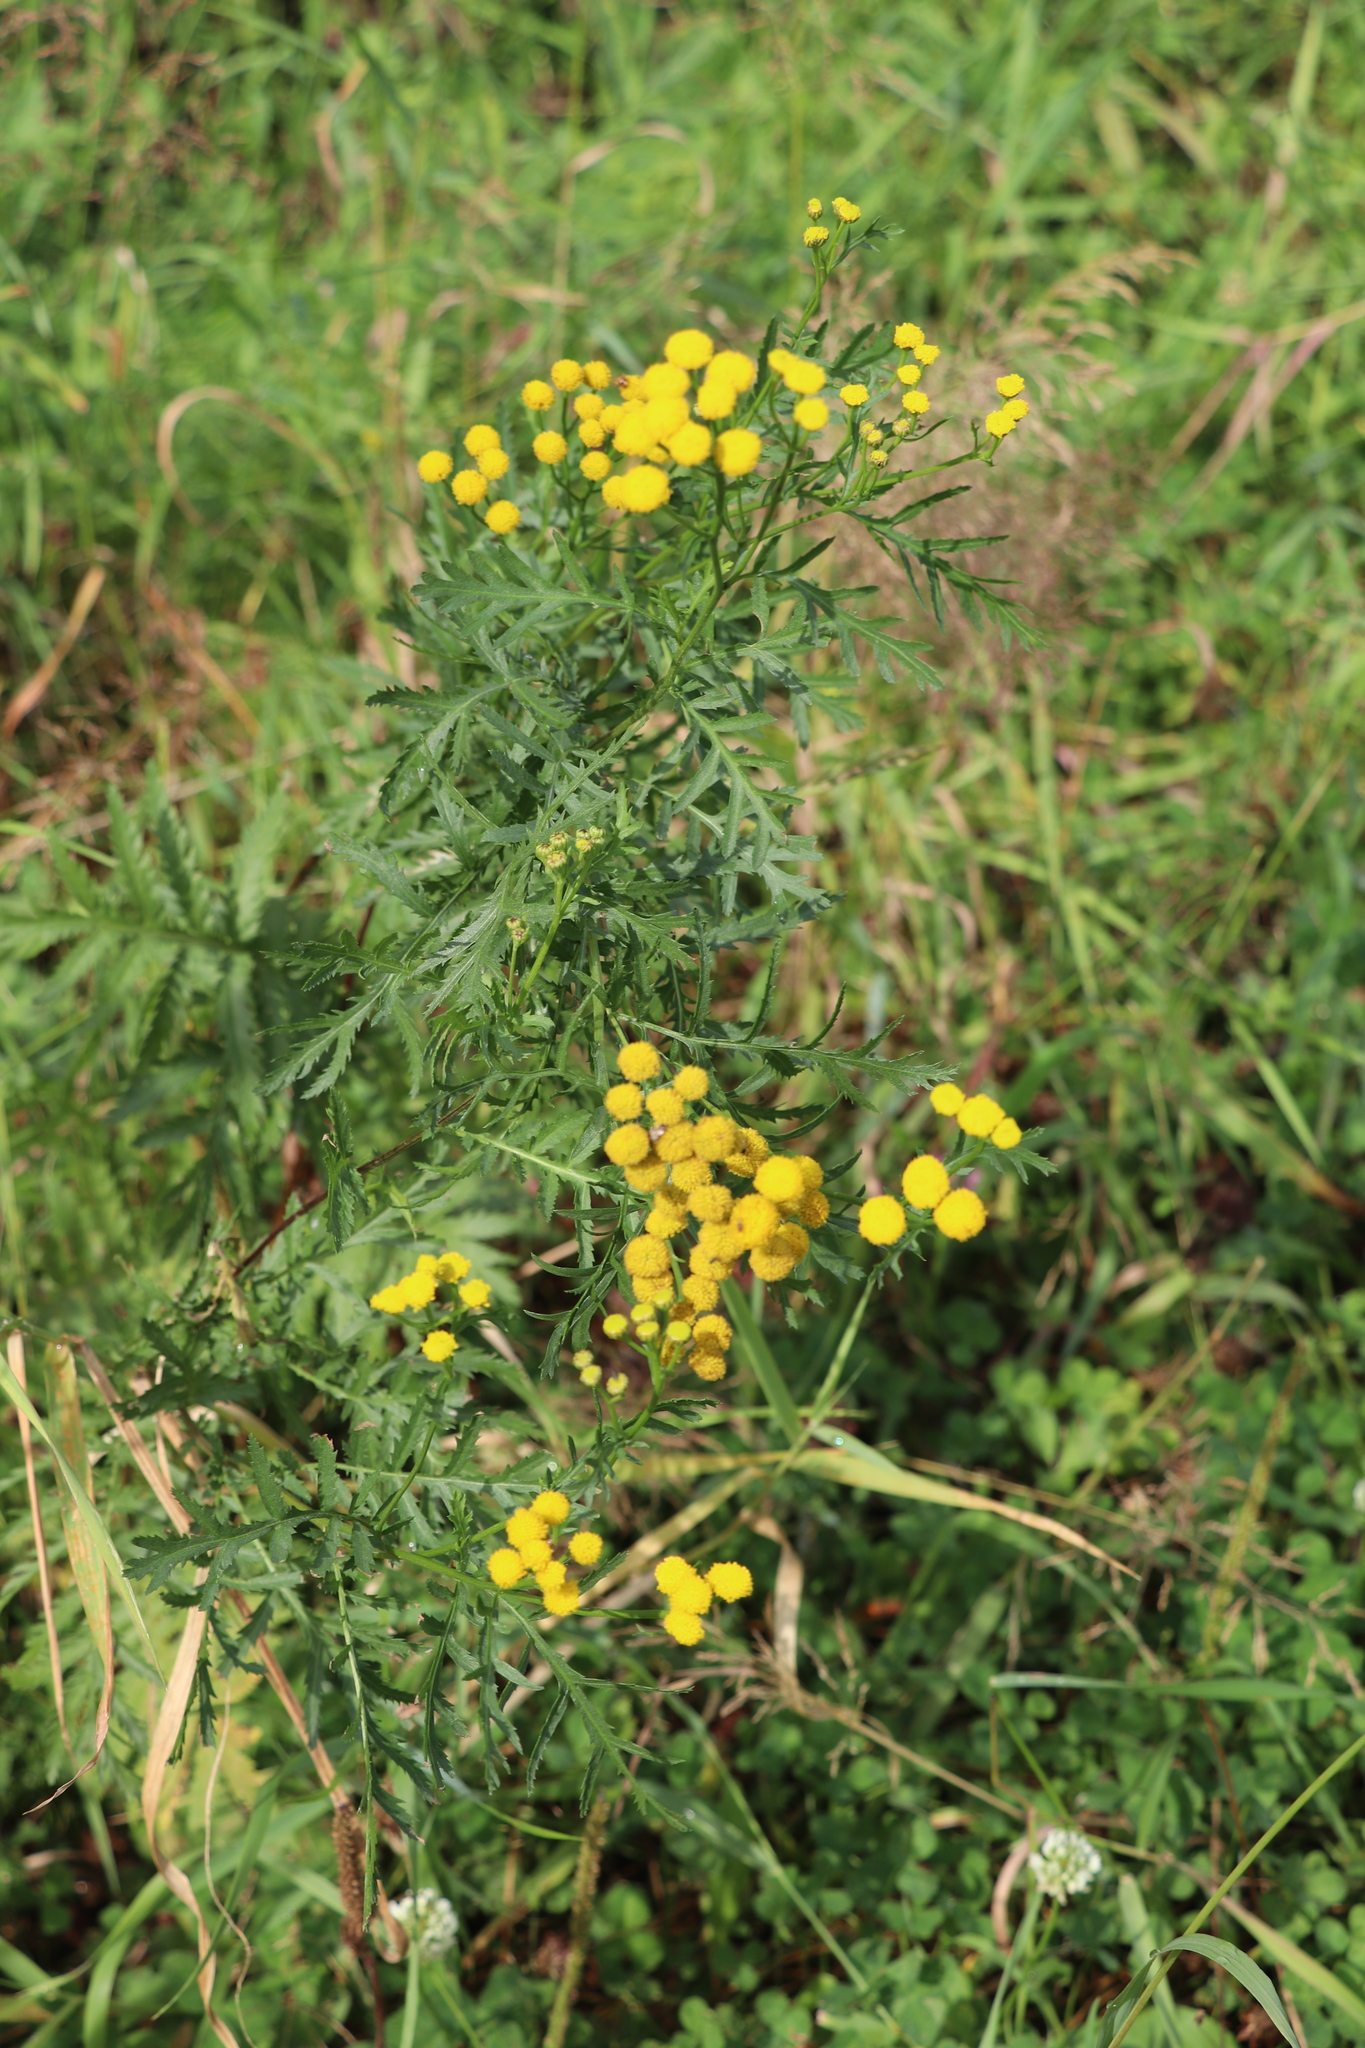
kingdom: Plantae
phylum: Tracheophyta
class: Magnoliopsida
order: Asterales
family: Asteraceae
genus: Tanacetum
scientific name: Tanacetum vulgare
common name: Common tansy
